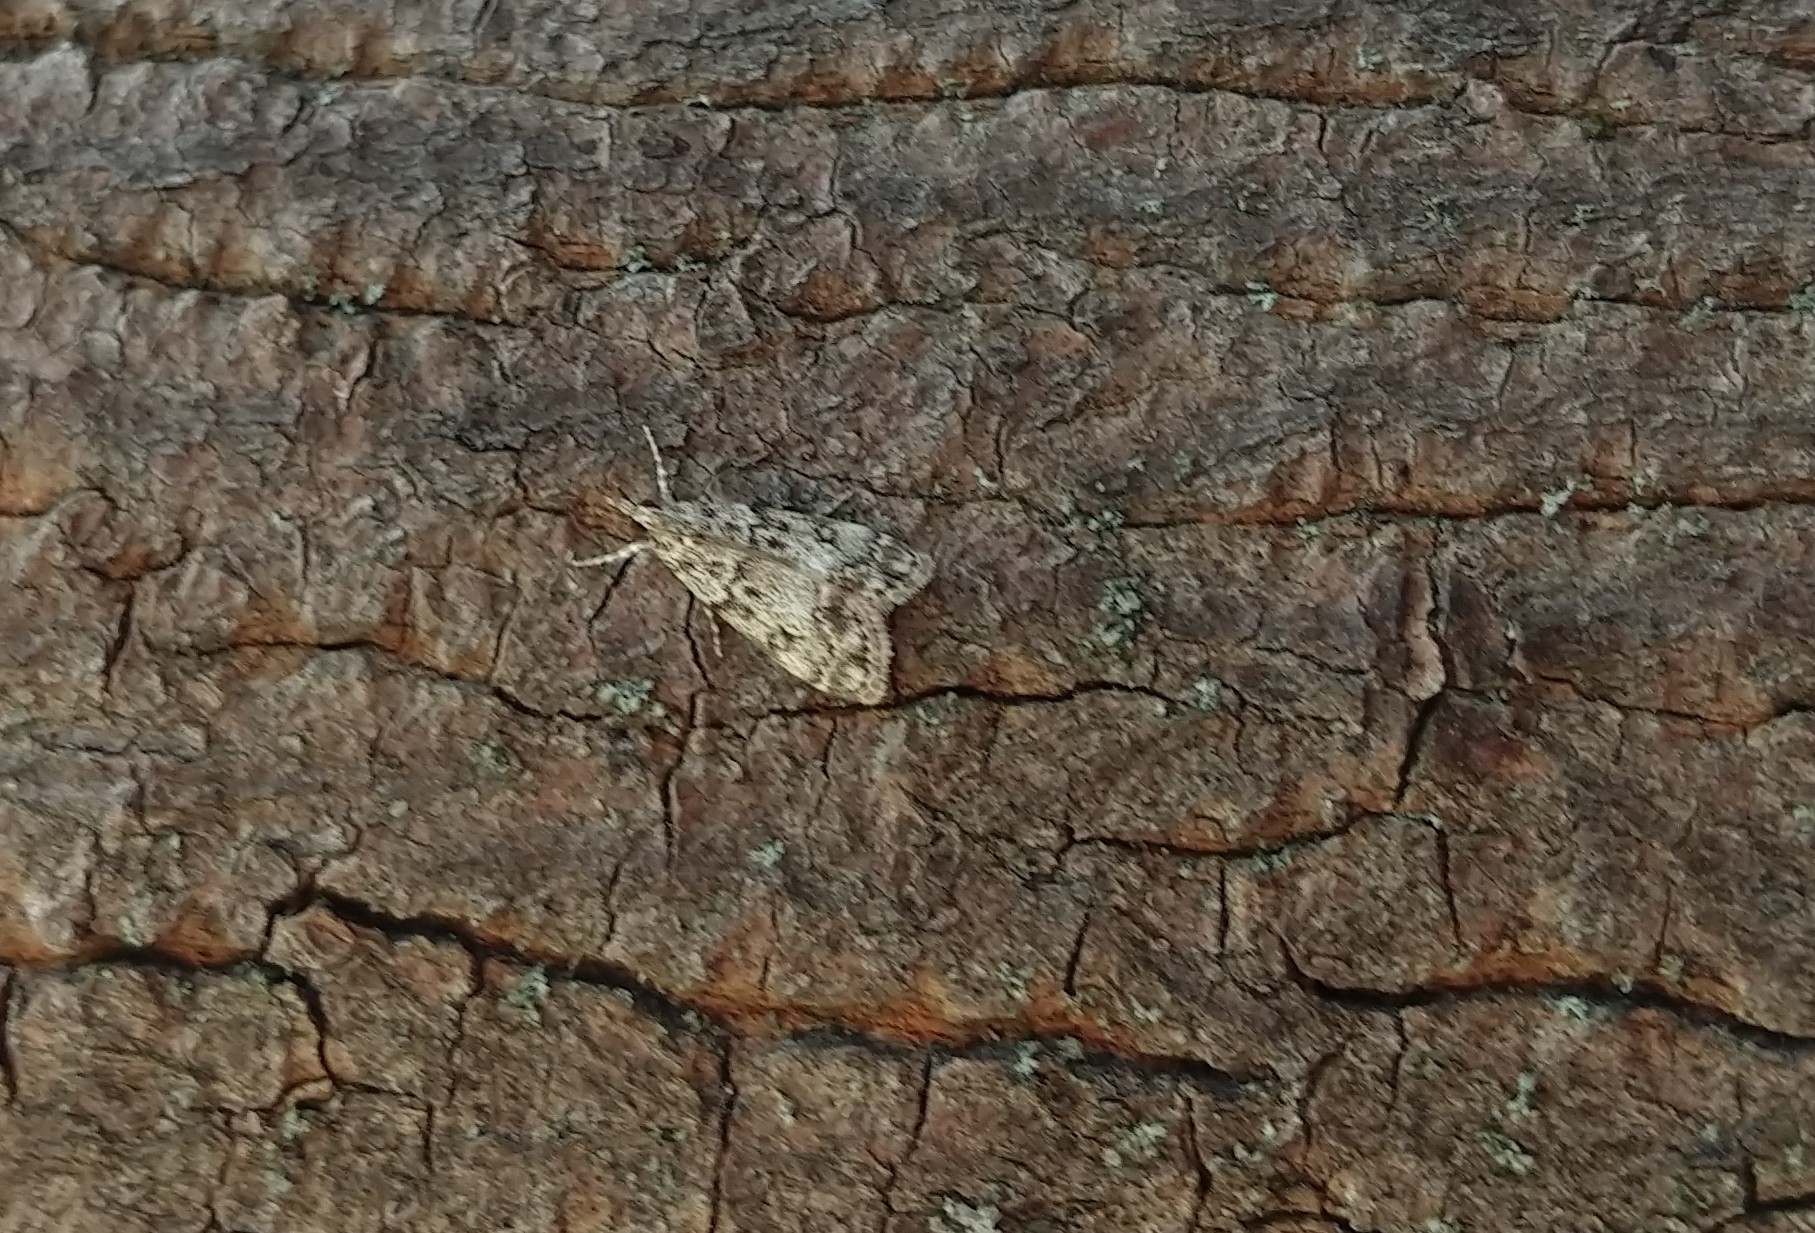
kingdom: Animalia
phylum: Arthropoda
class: Insecta
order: Lepidoptera
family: Crambidae
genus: Eudonia
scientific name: Eudonia lacustrata
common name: Little grey
